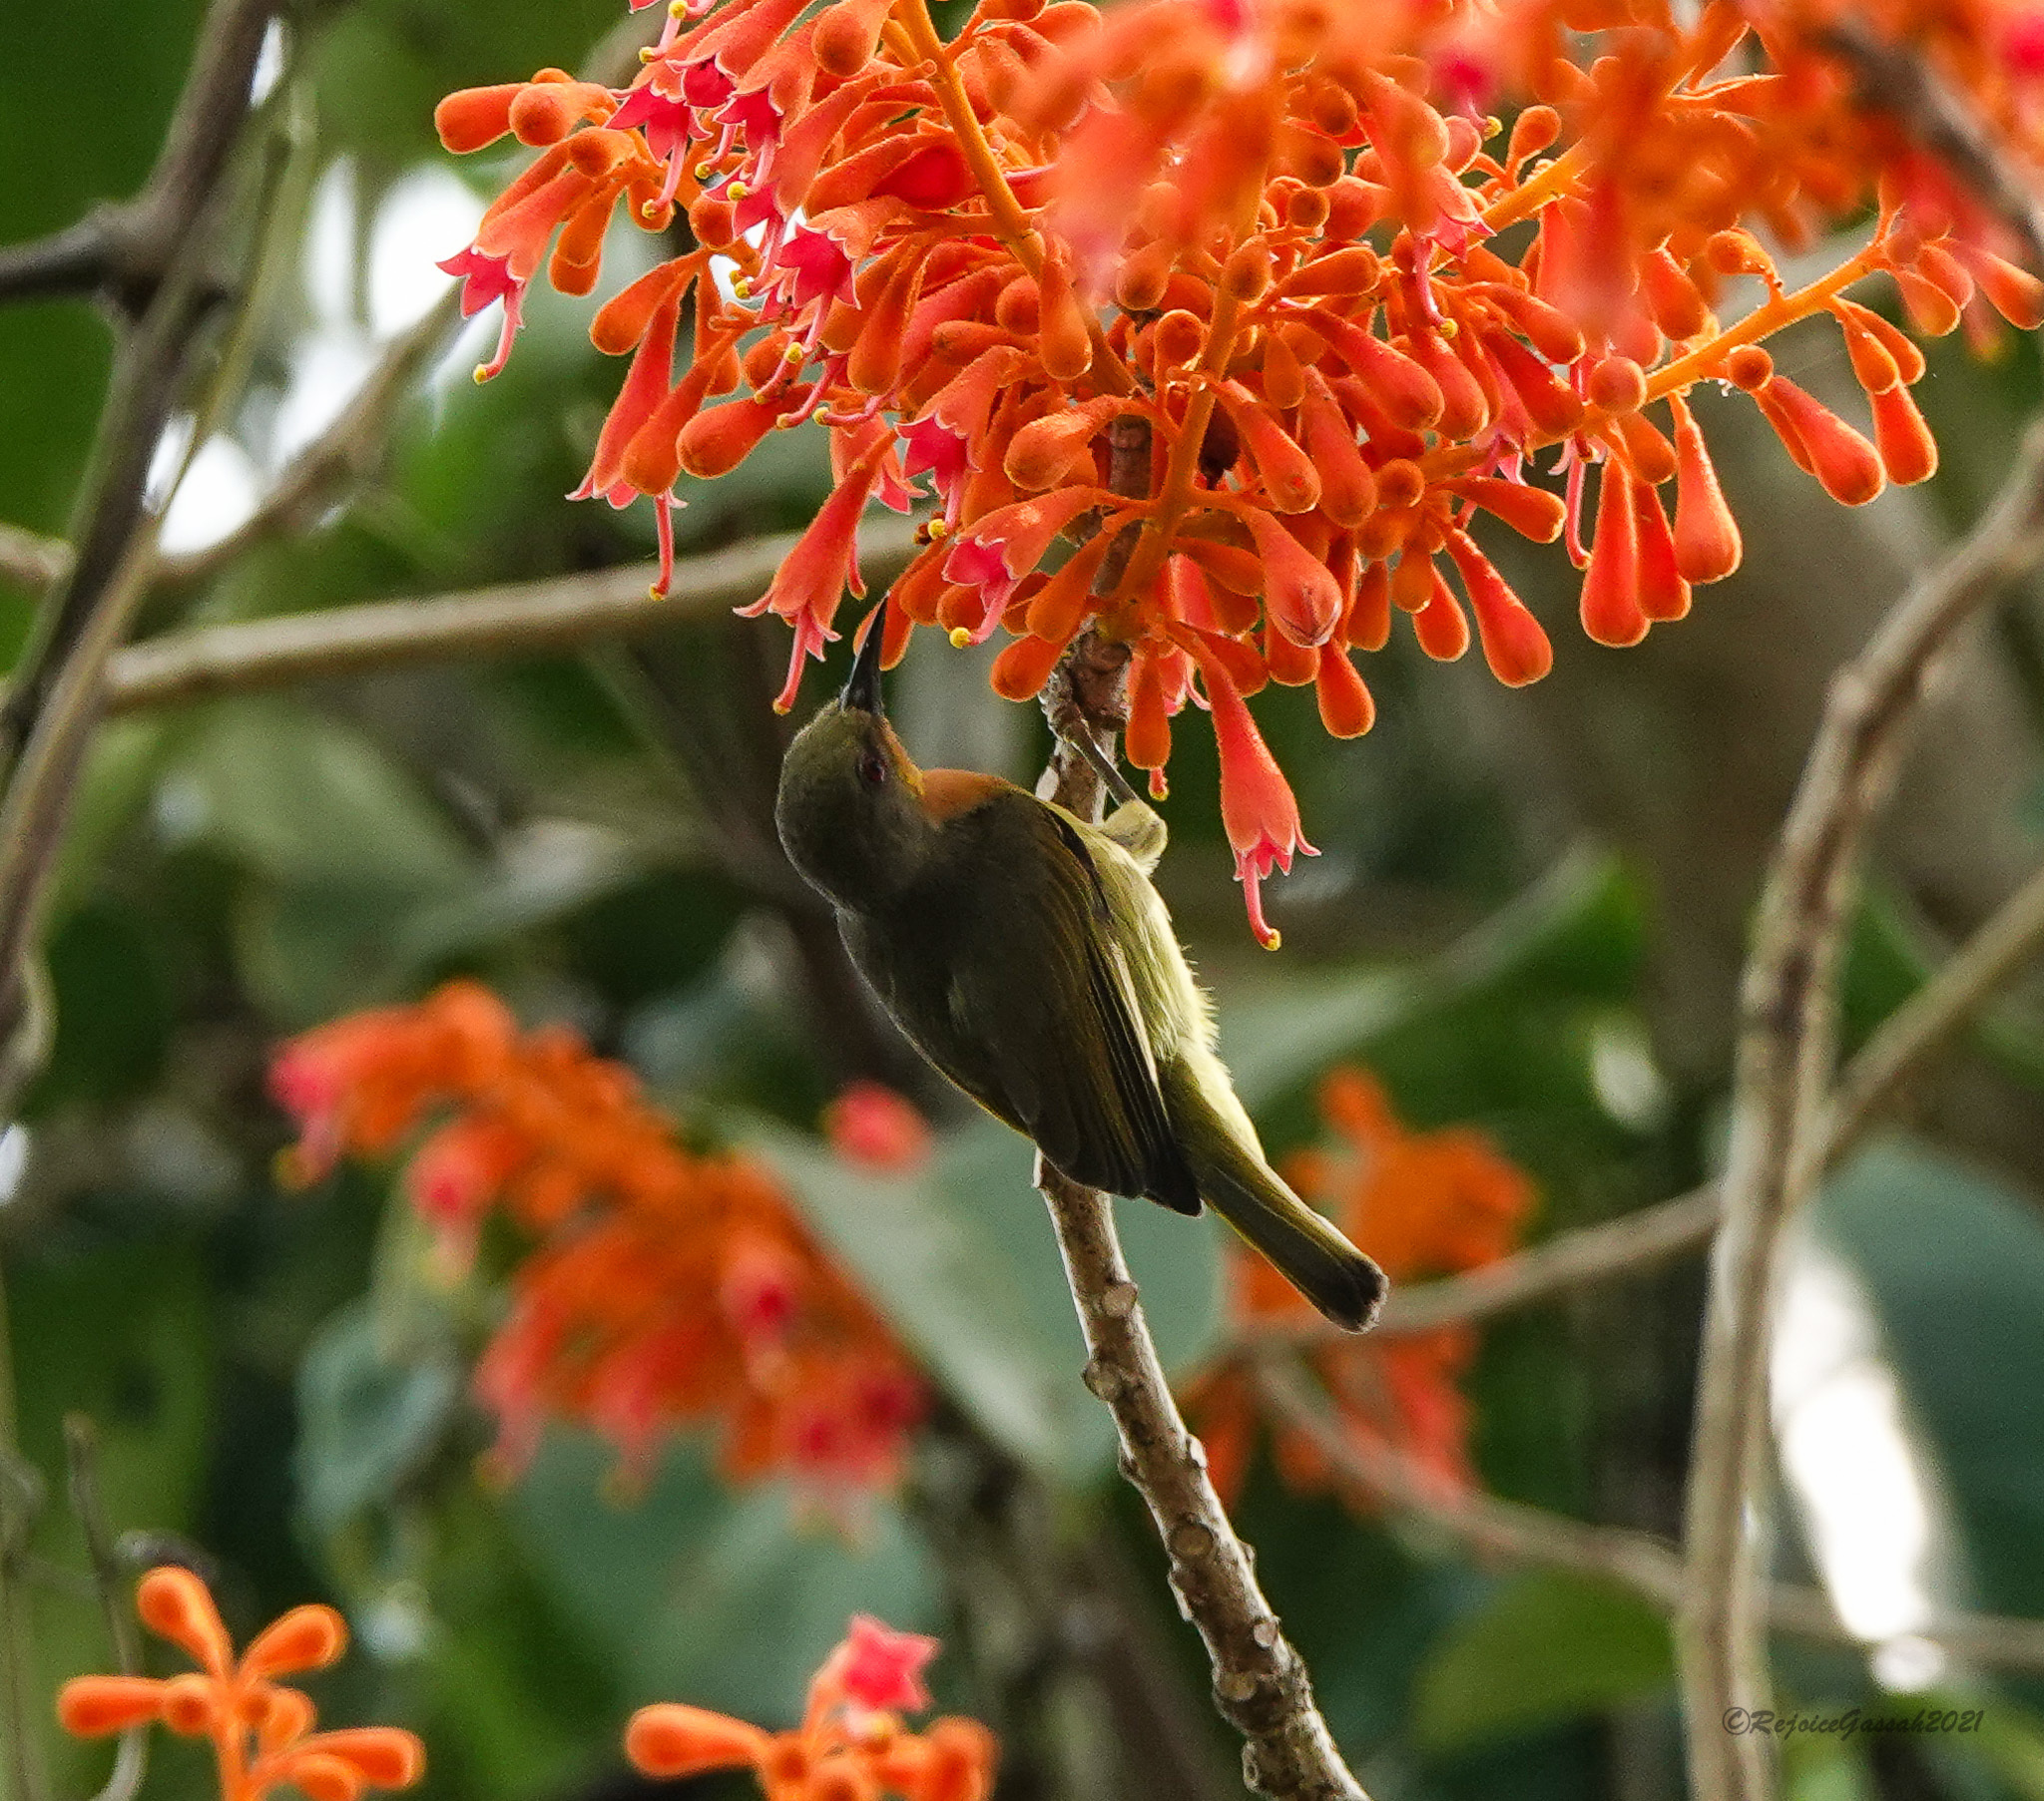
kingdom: Animalia
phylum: Chordata
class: Aves
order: Passeriformes
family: Nectariniidae
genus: Chalcoparia
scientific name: Chalcoparia singalensis
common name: Ruby-cheeked sunbird
